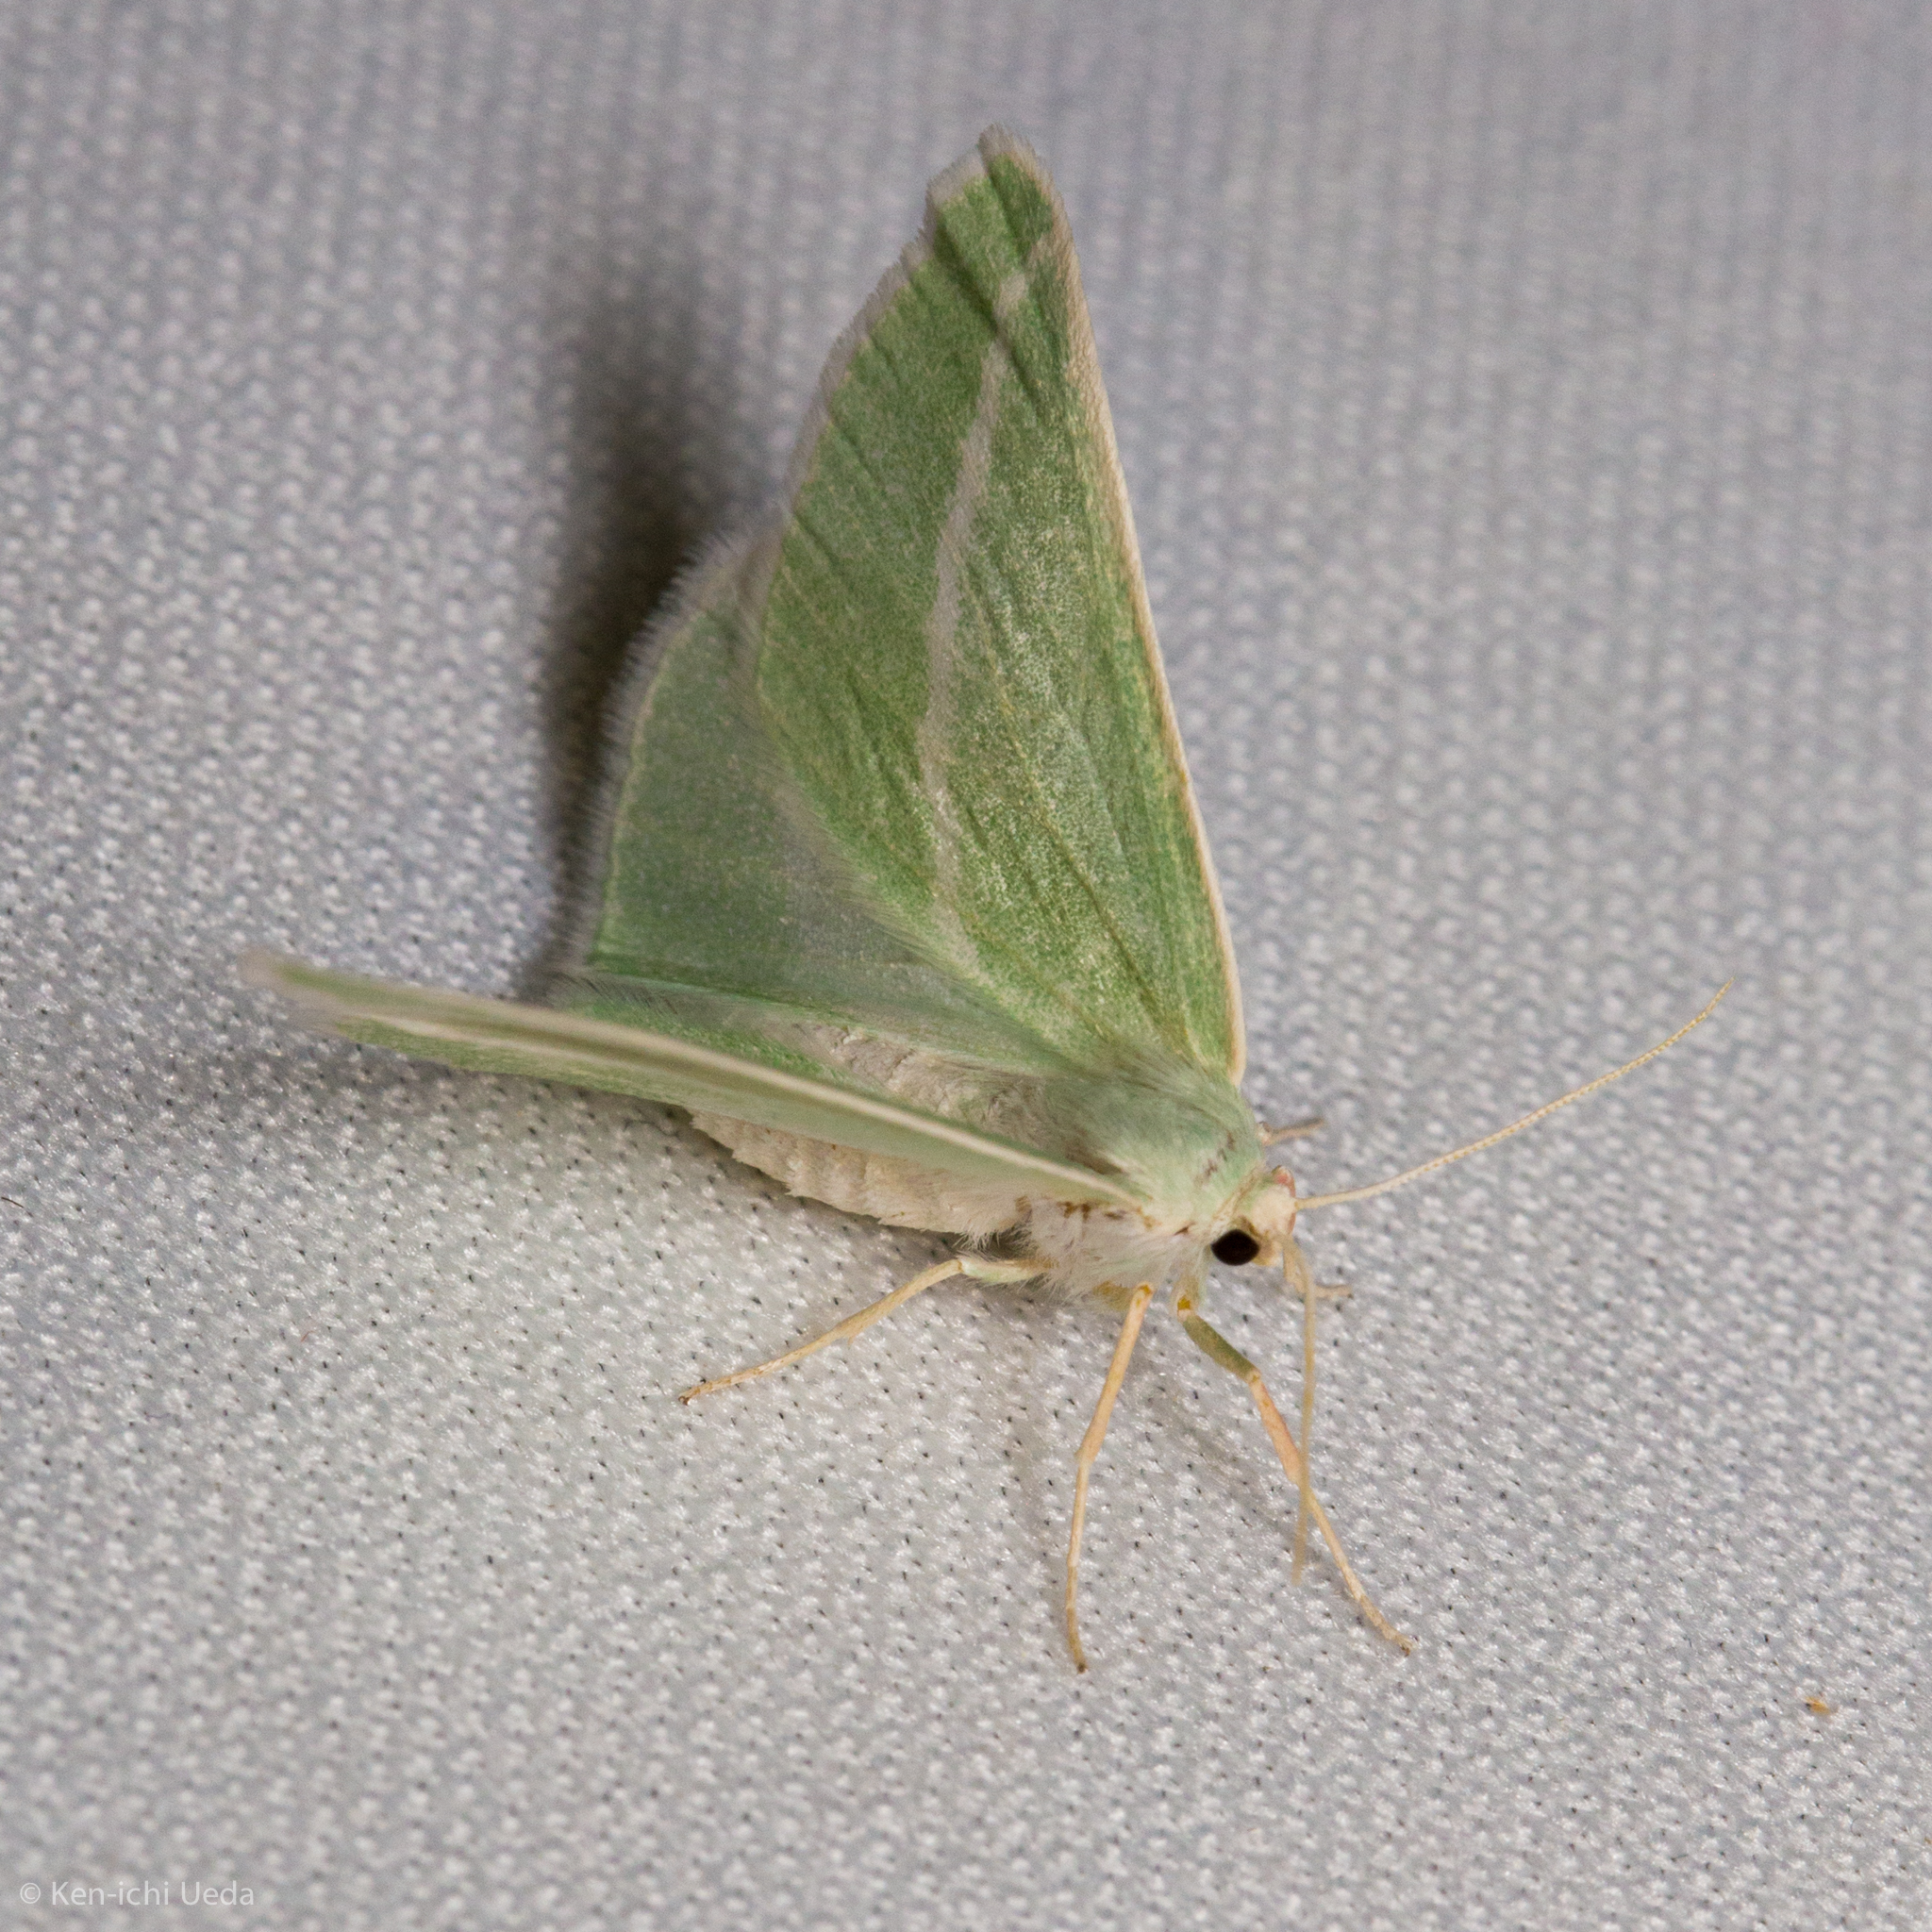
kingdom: Animalia
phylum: Arthropoda
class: Insecta
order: Lepidoptera
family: Geometridae
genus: Chlorosea
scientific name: Chlorosea margaretaria
